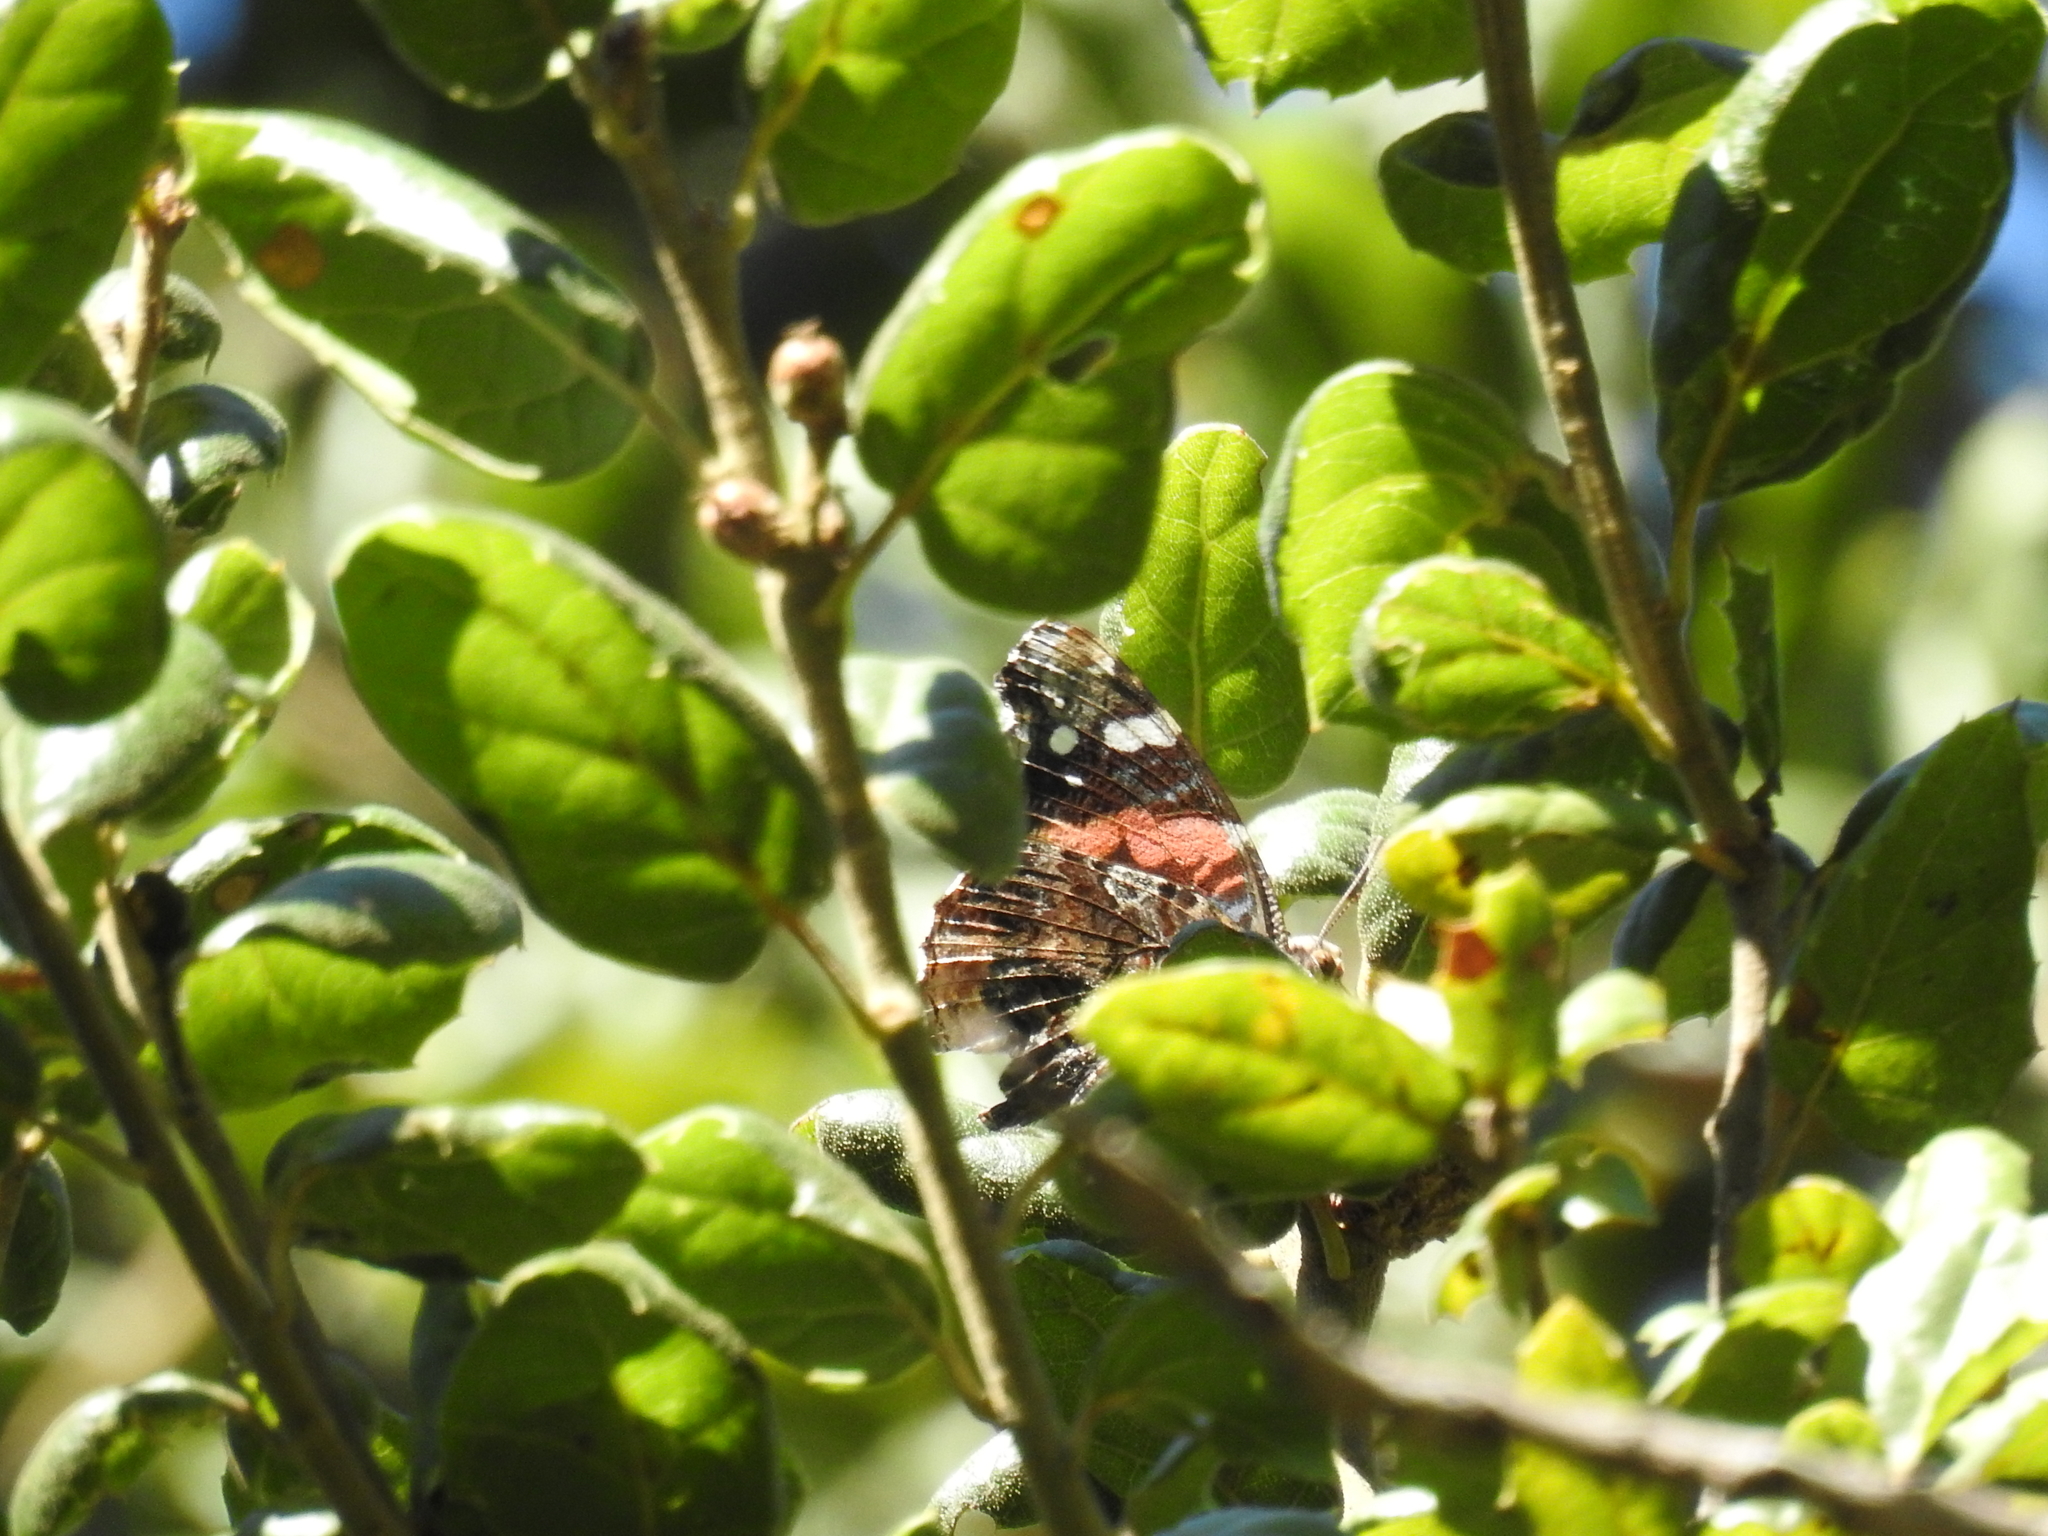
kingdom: Animalia
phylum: Arthropoda
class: Insecta
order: Lepidoptera
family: Nymphalidae
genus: Vanessa
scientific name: Vanessa atalanta
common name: Red admiral
